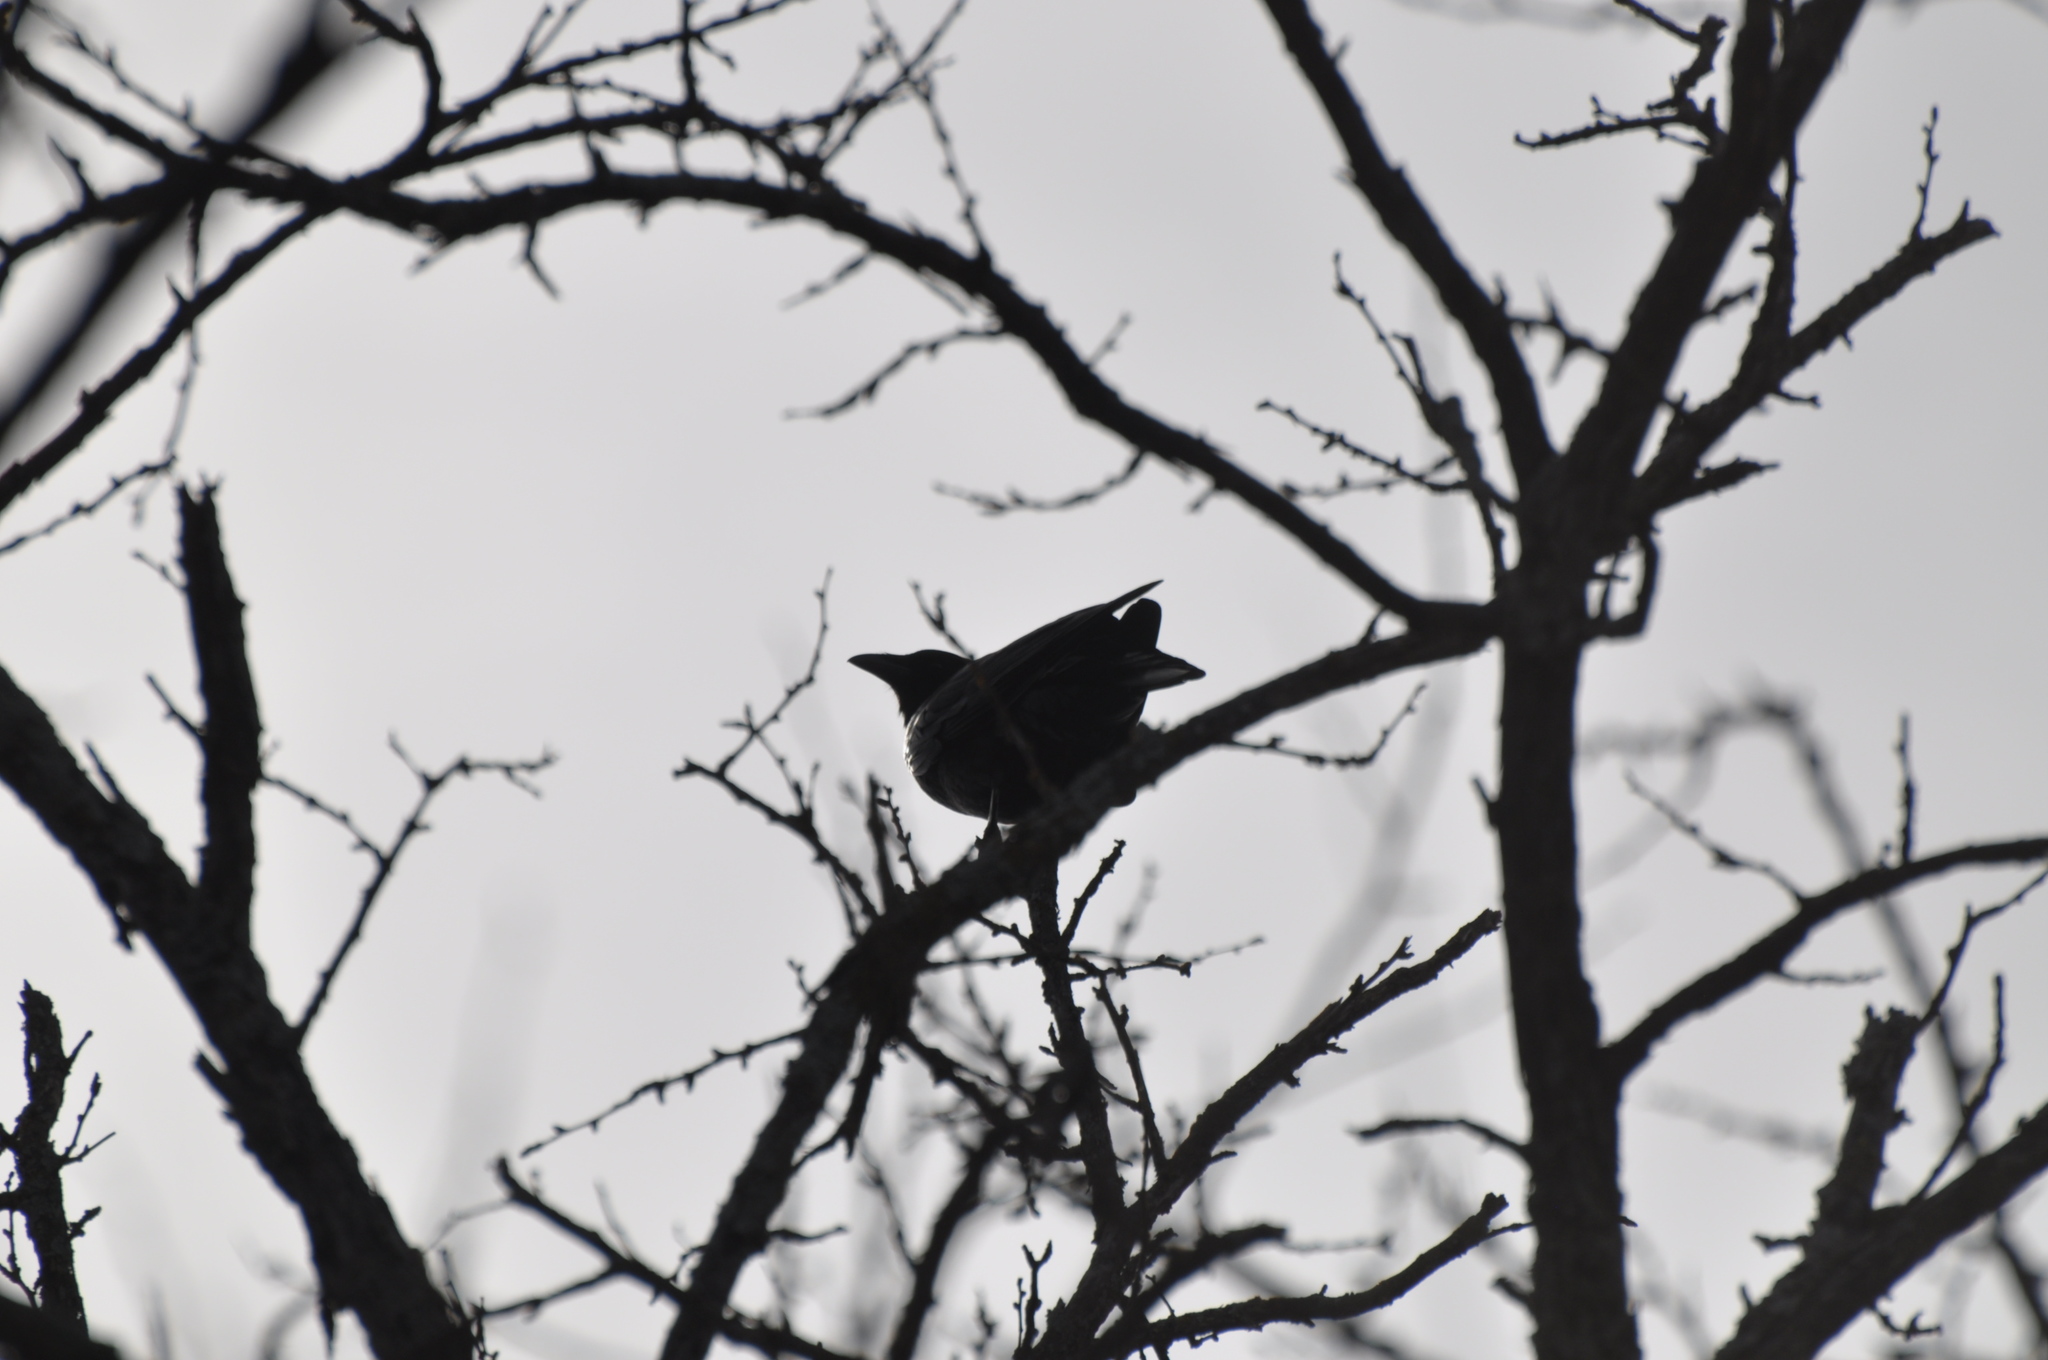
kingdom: Animalia
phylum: Chordata
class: Aves
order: Passeriformes
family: Corvidae
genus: Corvus
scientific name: Corvus brachyrhynchos
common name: American crow
